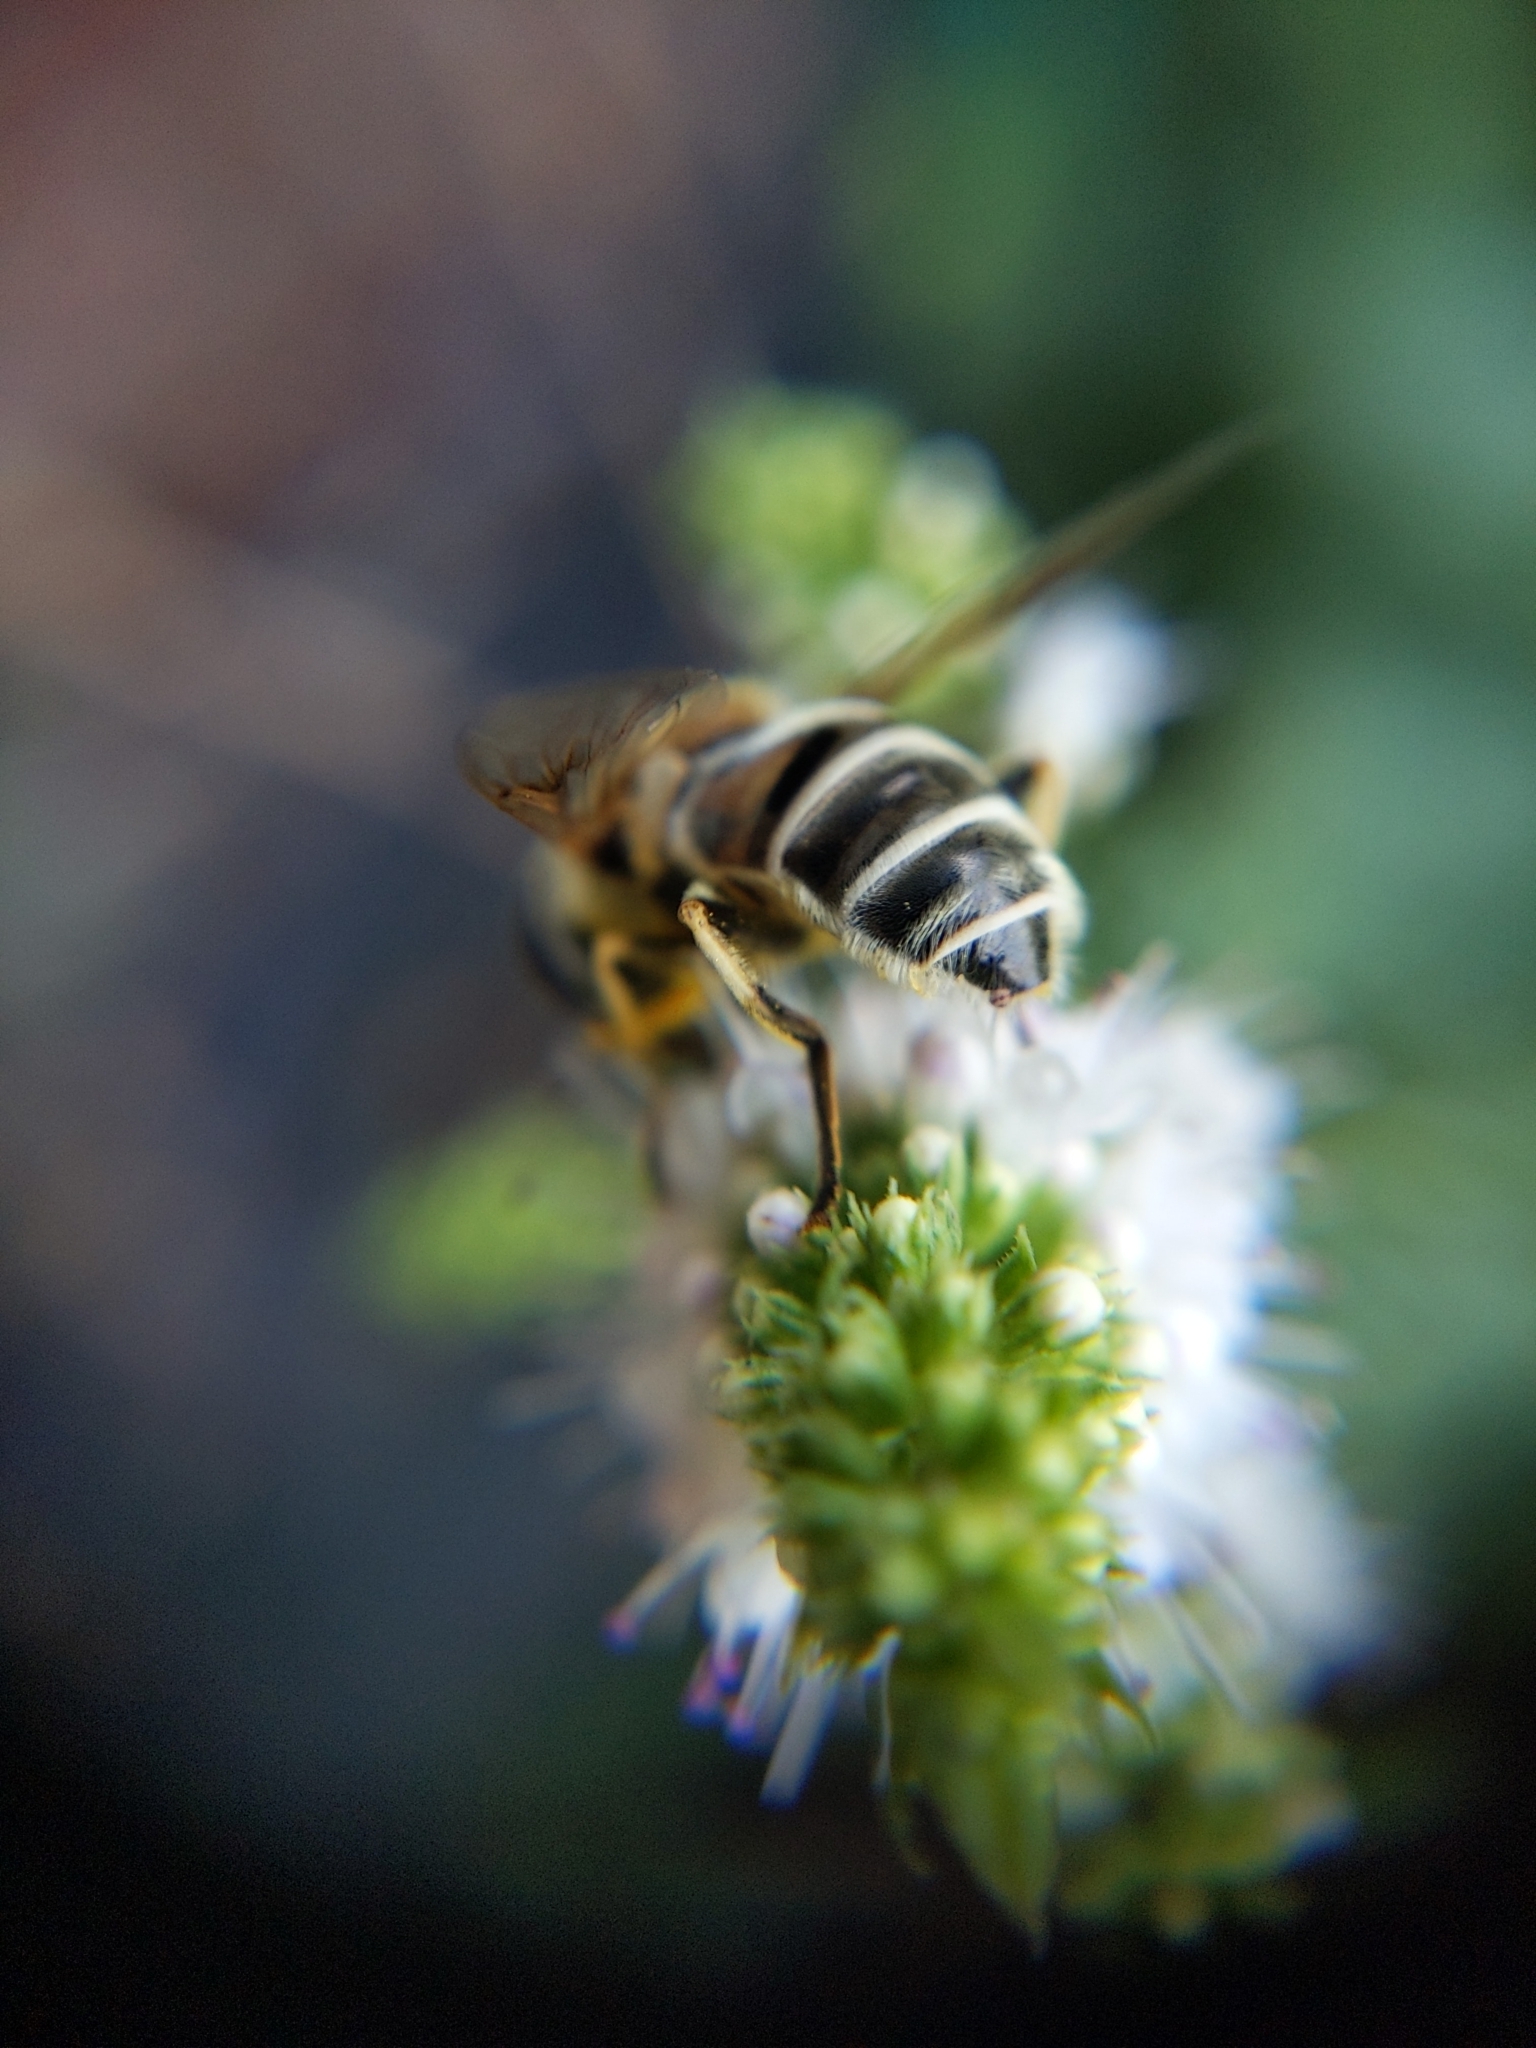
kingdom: Animalia
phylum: Arthropoda
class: Insecta
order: Diptera
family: Syrphidae
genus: Eristalis
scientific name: Eristalis stipator
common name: Yellow-shouldered drone fly
